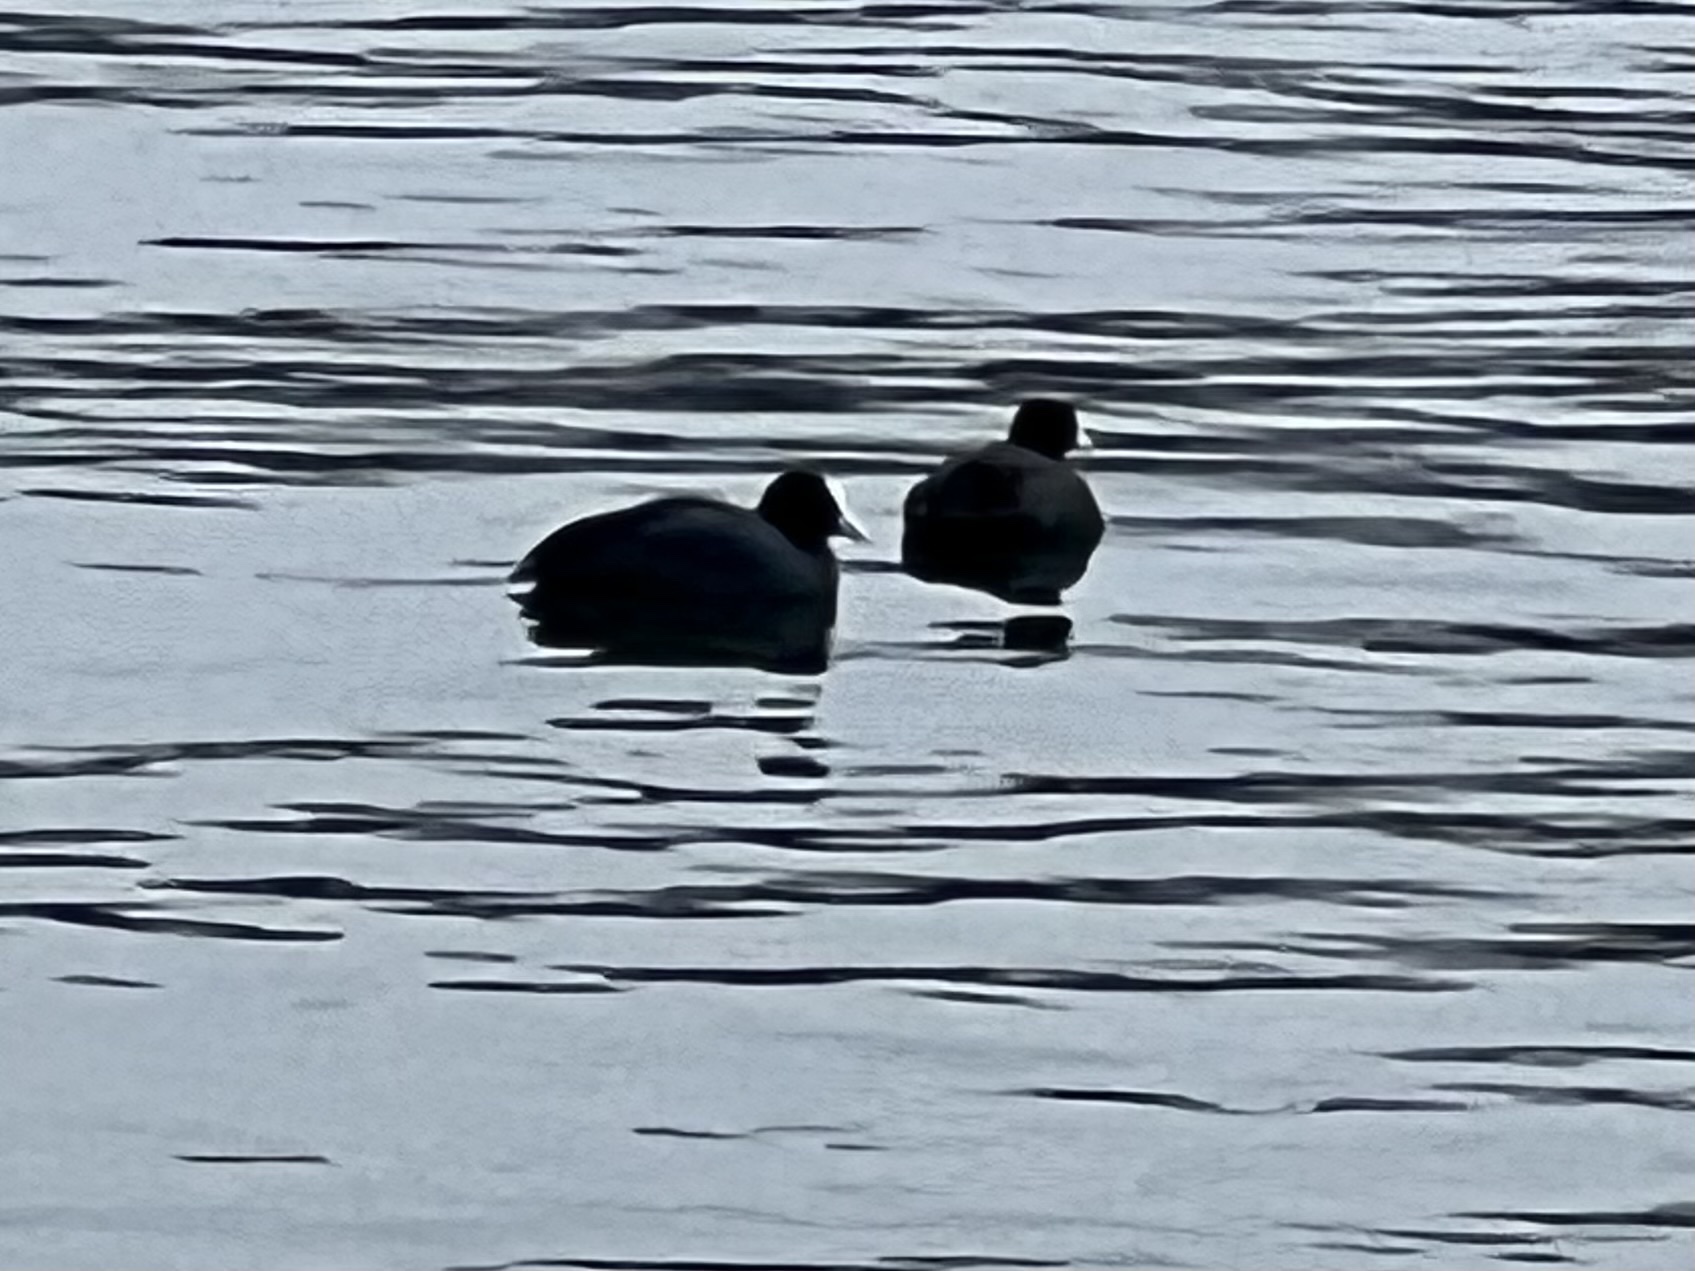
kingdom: Animalia
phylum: Chordata
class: Aves
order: Gruiformes
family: Rallidae
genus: Fulica
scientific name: Fulica atra
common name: Eurasian coot
